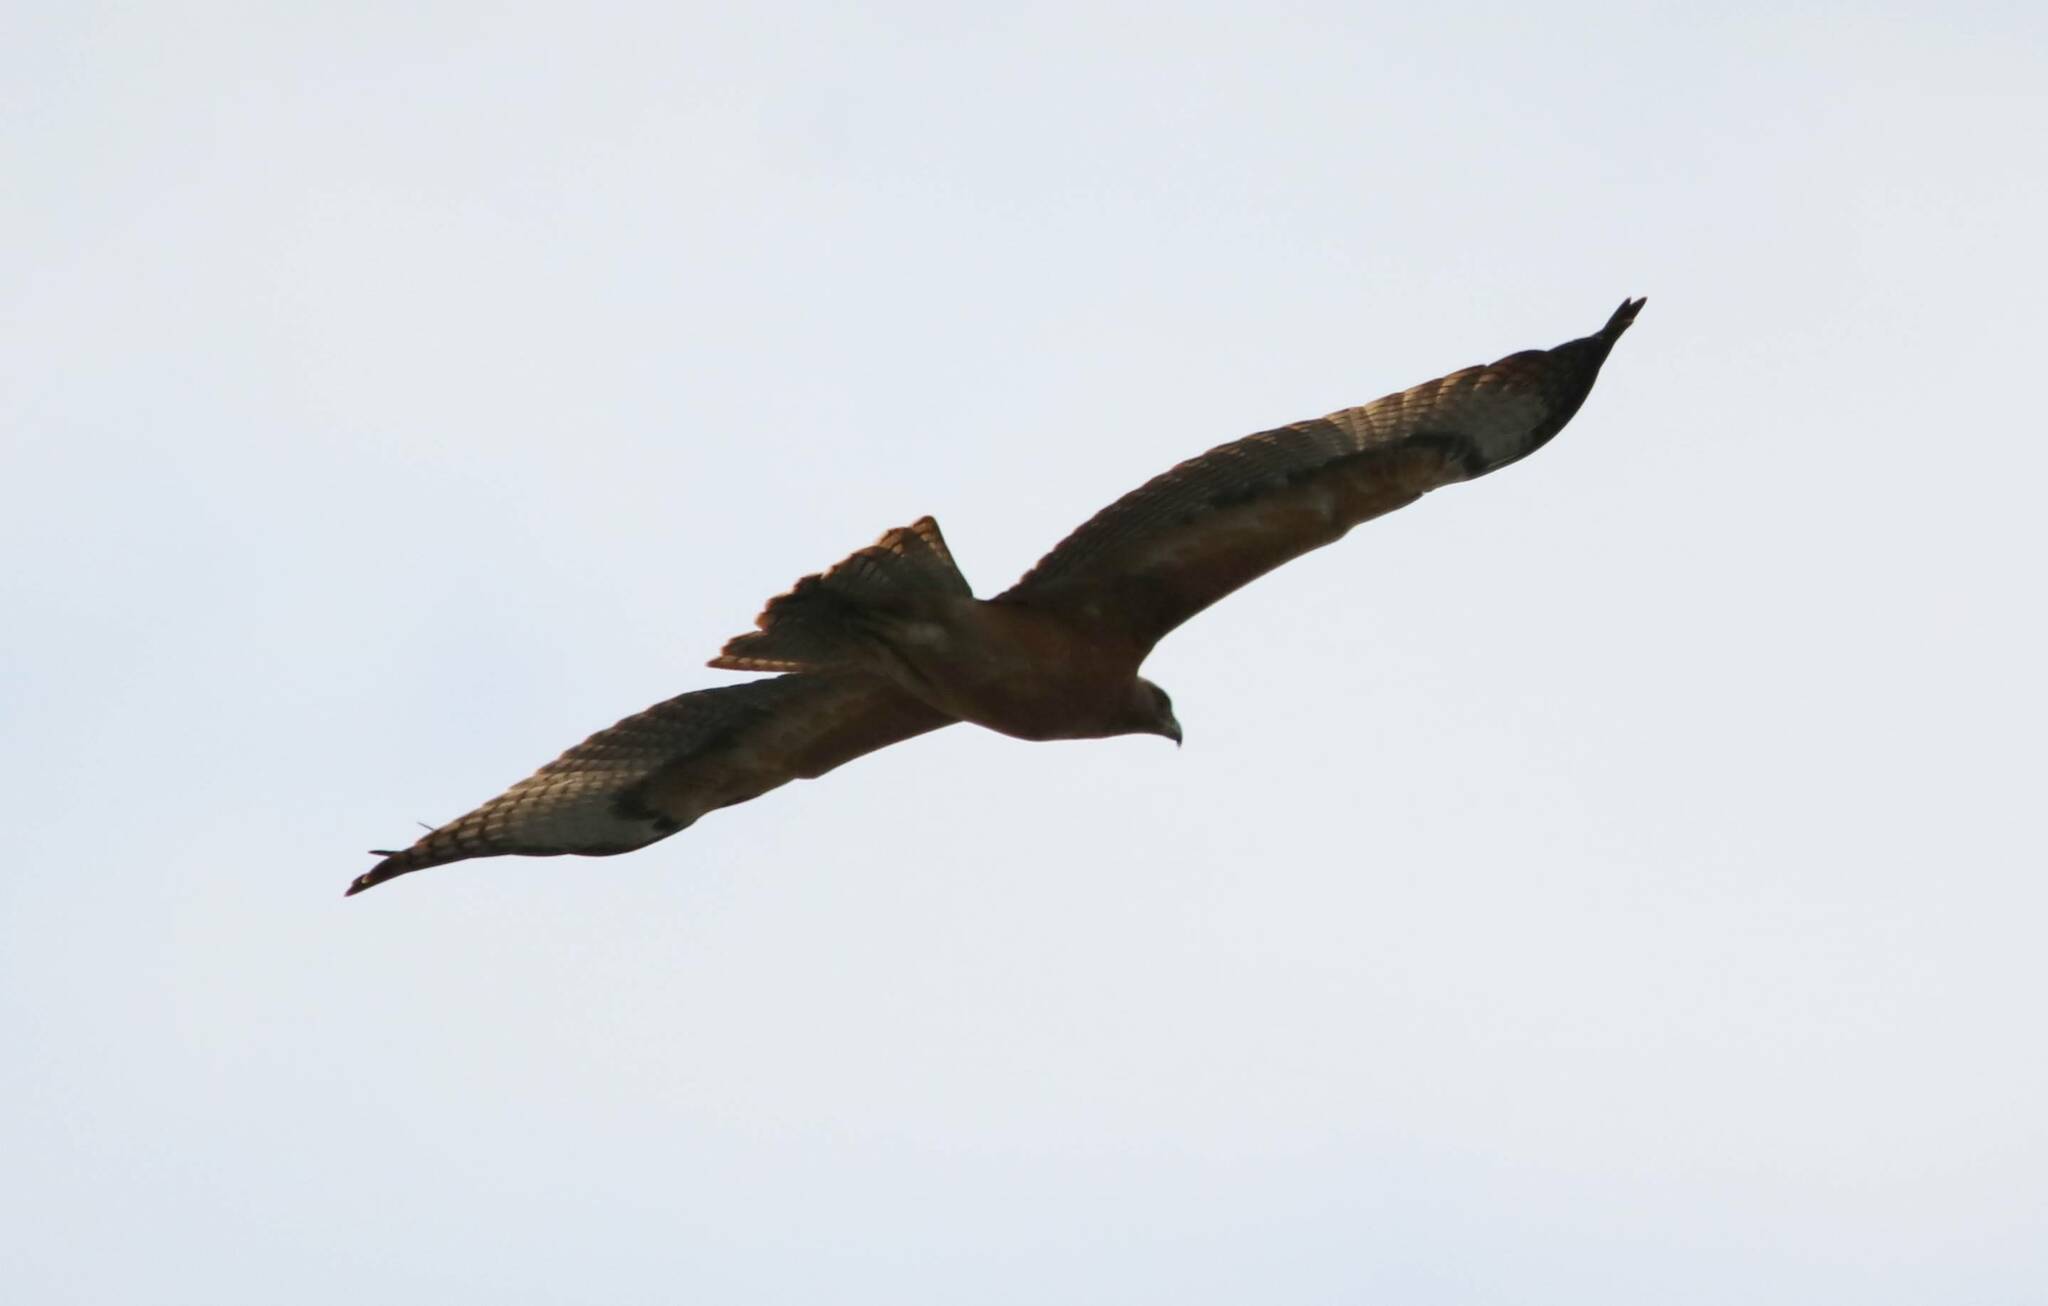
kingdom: Animalia
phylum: Chordata
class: Aves
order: Accipitriformes
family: Accipitridae
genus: Aquila
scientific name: Aquila fasciata
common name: Bonelli's eagle
